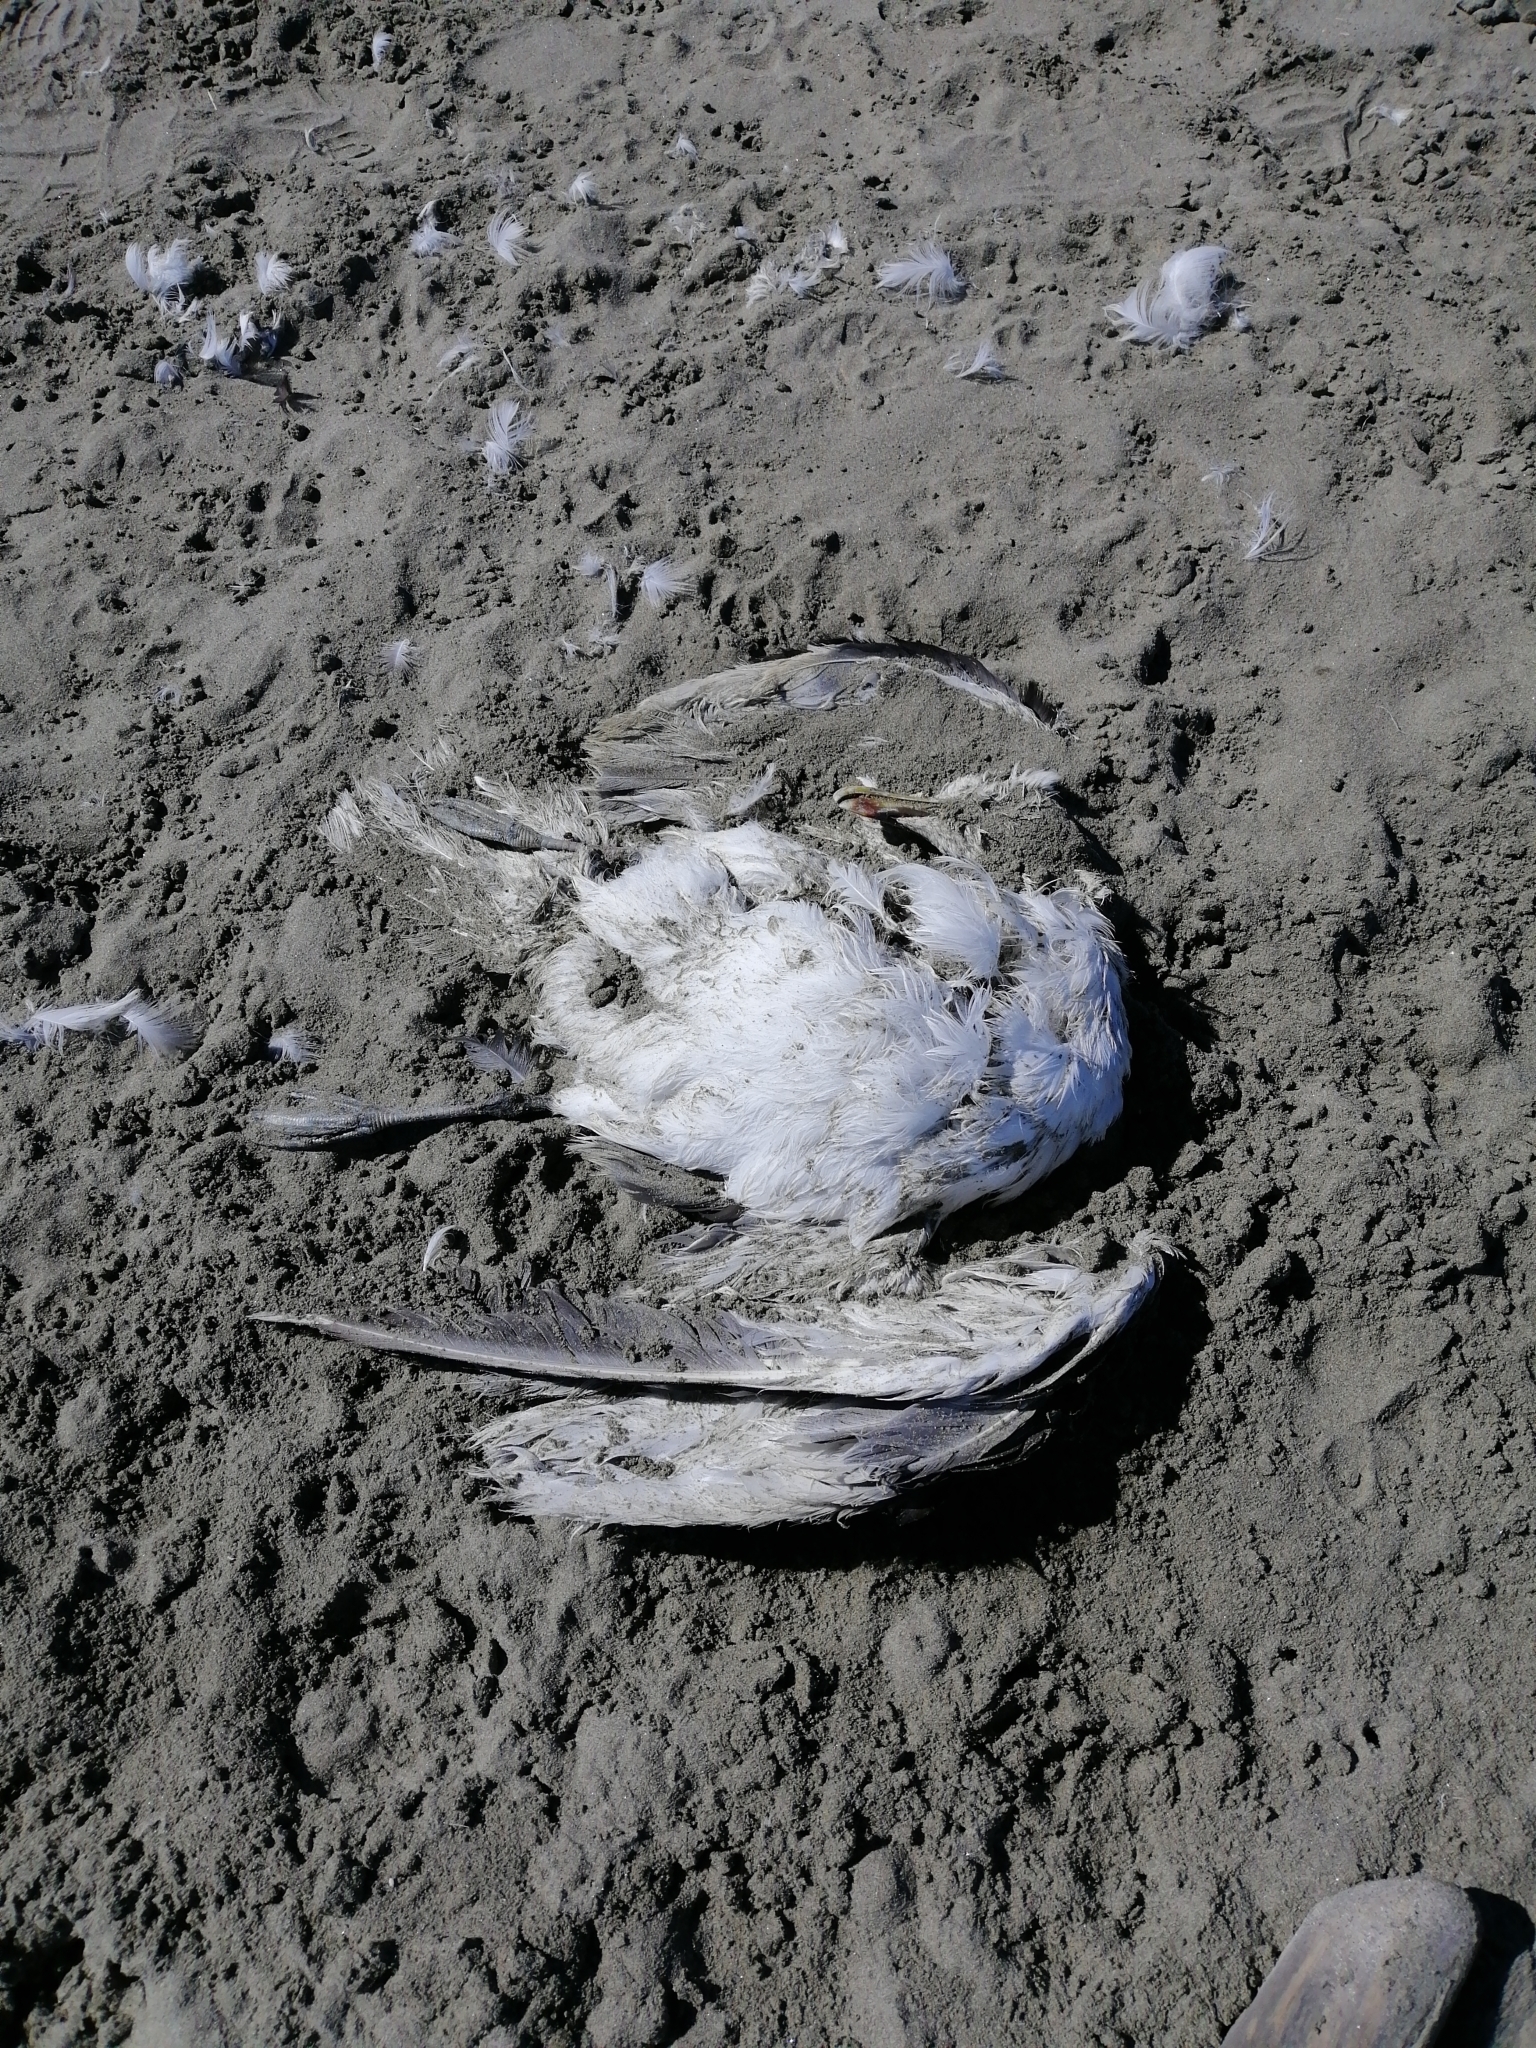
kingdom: Animalia
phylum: Chordata
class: Aves
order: Charadriiformes
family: Laridae
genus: Larus
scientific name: Larus dominicanus
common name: Kelp gull
